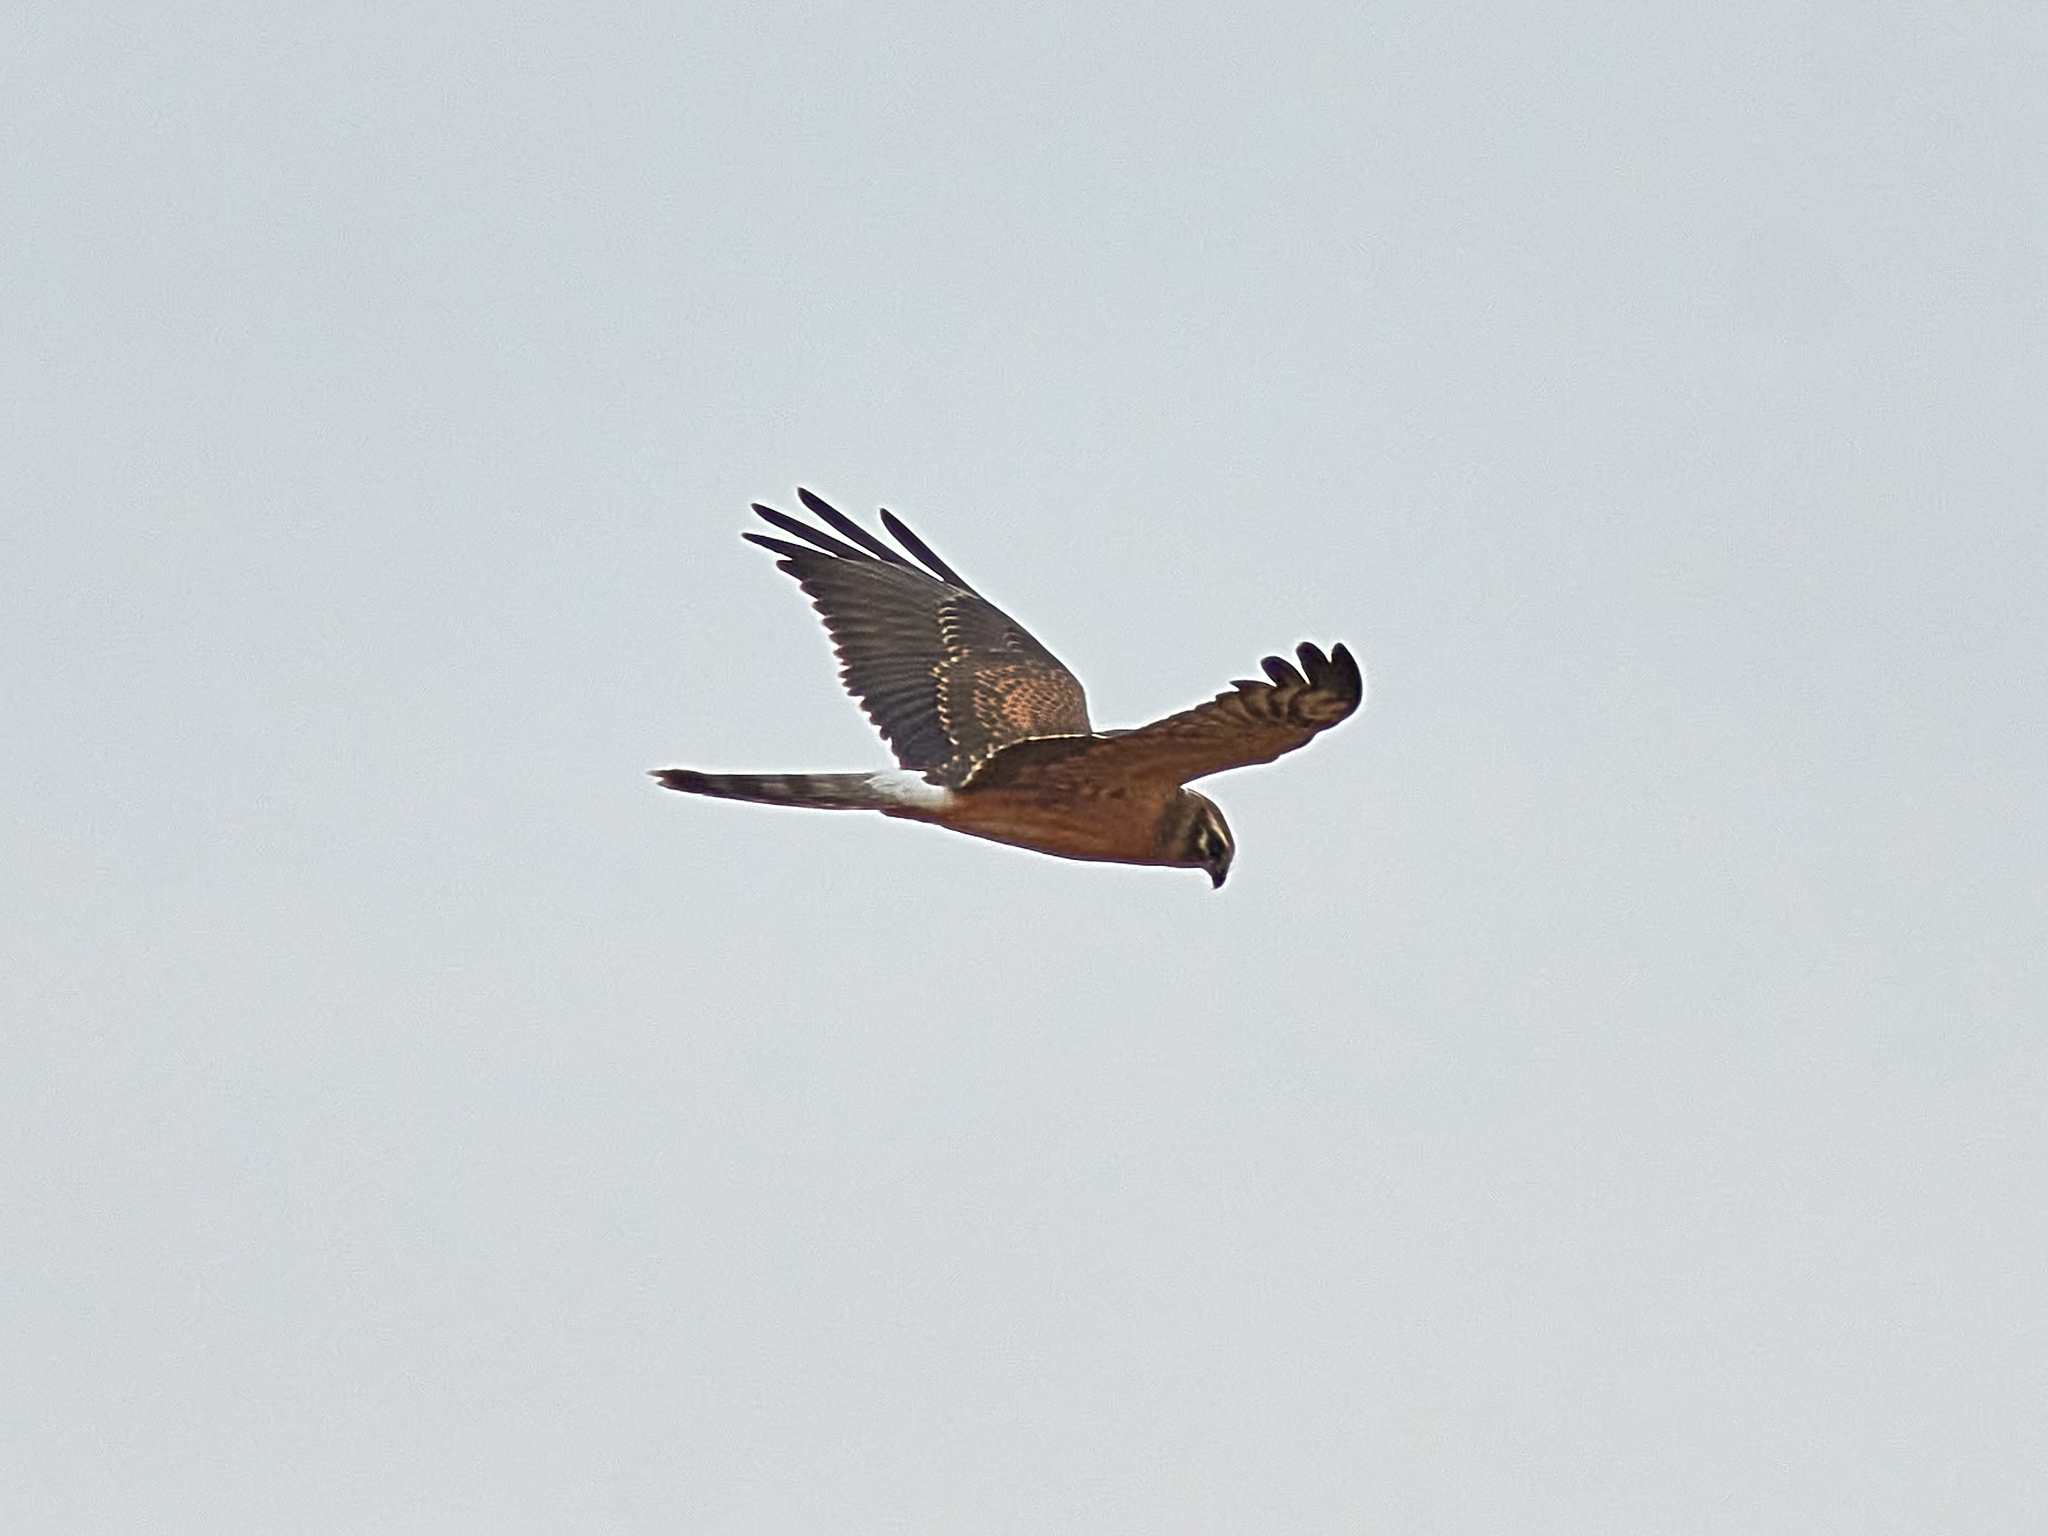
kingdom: Animalia
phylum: Chordata
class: Aves
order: Accipitriformes
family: Accipitridae
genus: Circus
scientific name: Circus pygargus
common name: Montagu's harrier
